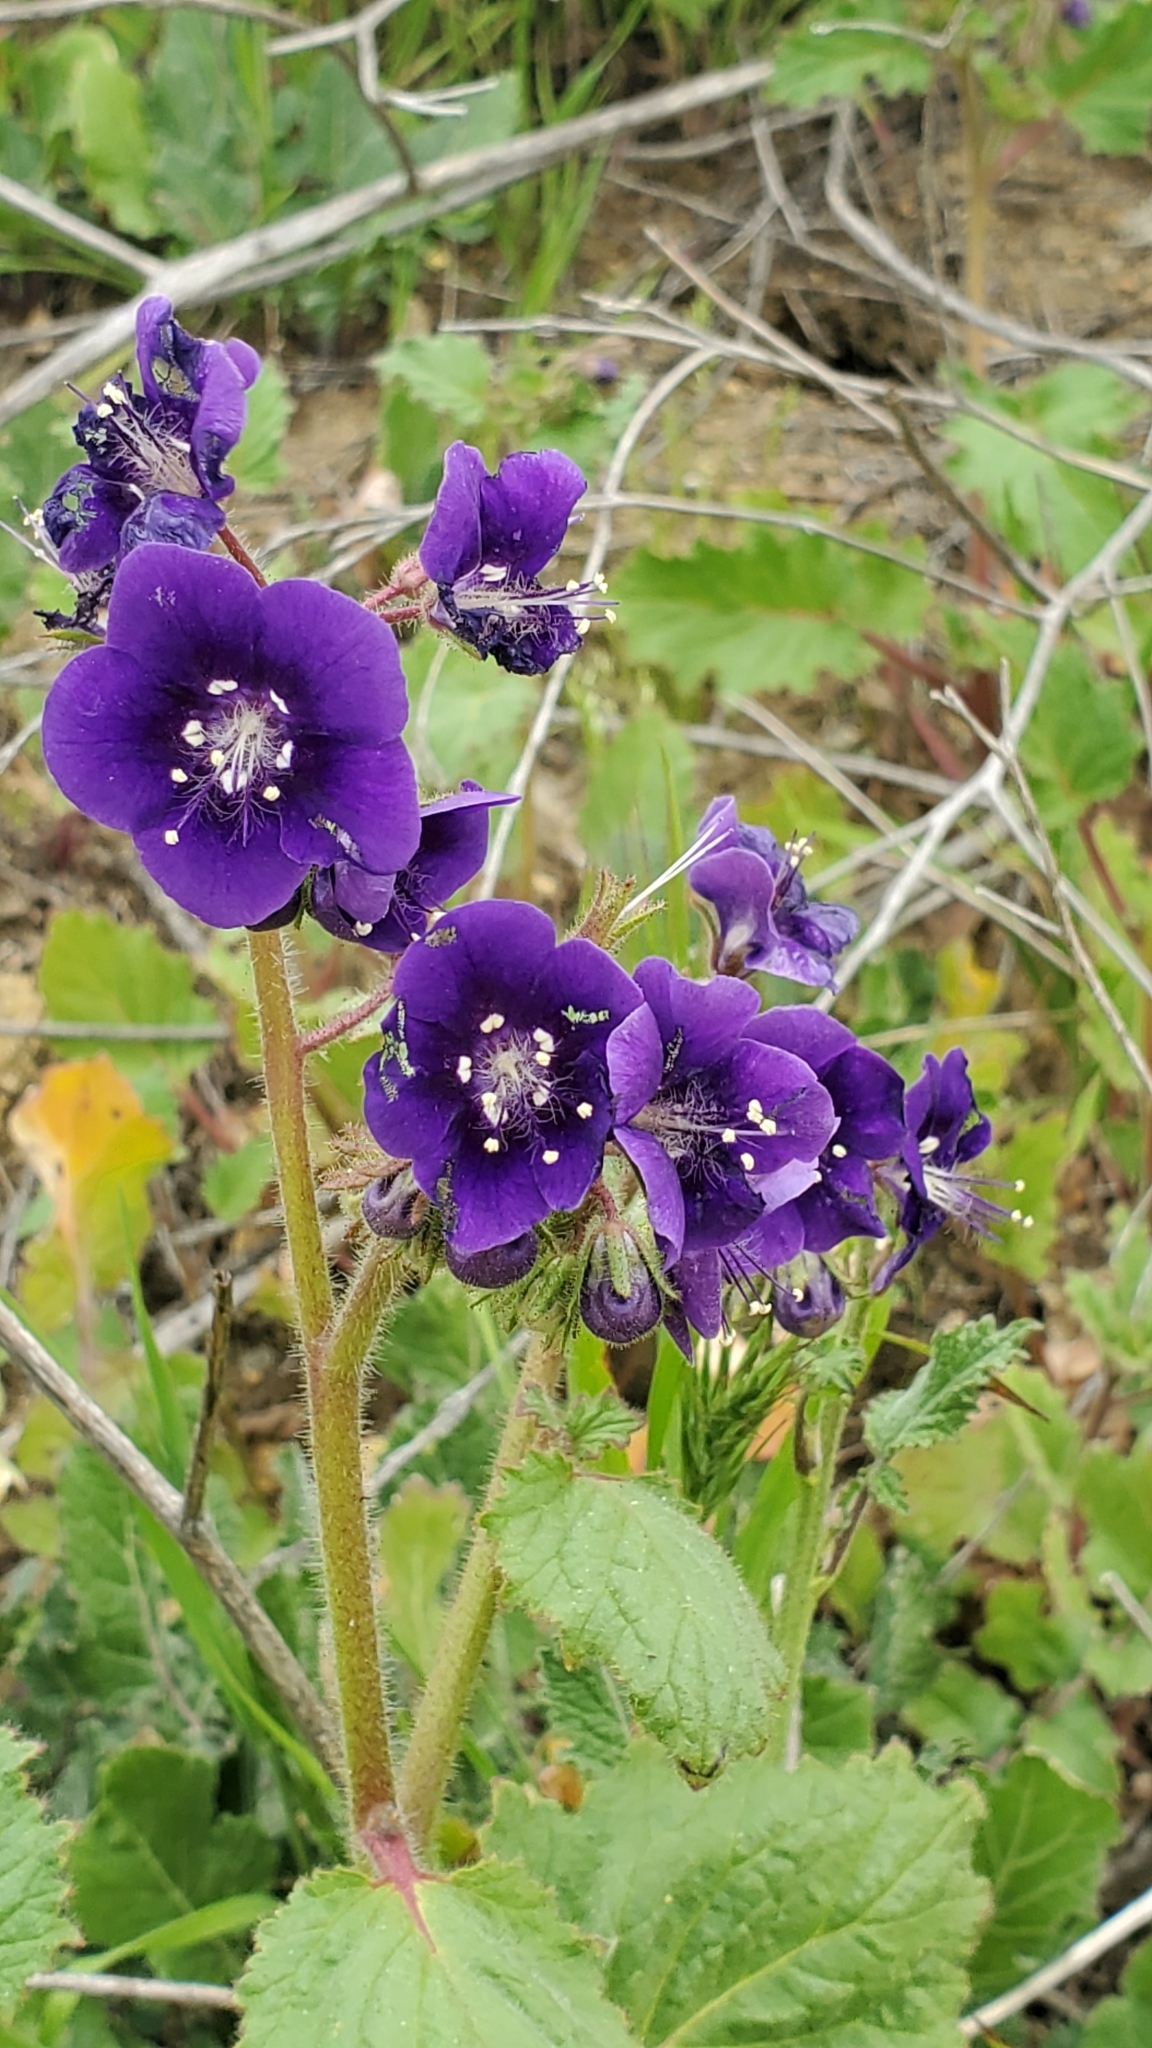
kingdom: Plantae
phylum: Tracheophyta
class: Magnoliopsida
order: Boraginales
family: Hydrophyllaceae
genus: Phacelia
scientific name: Phacelia parryi
